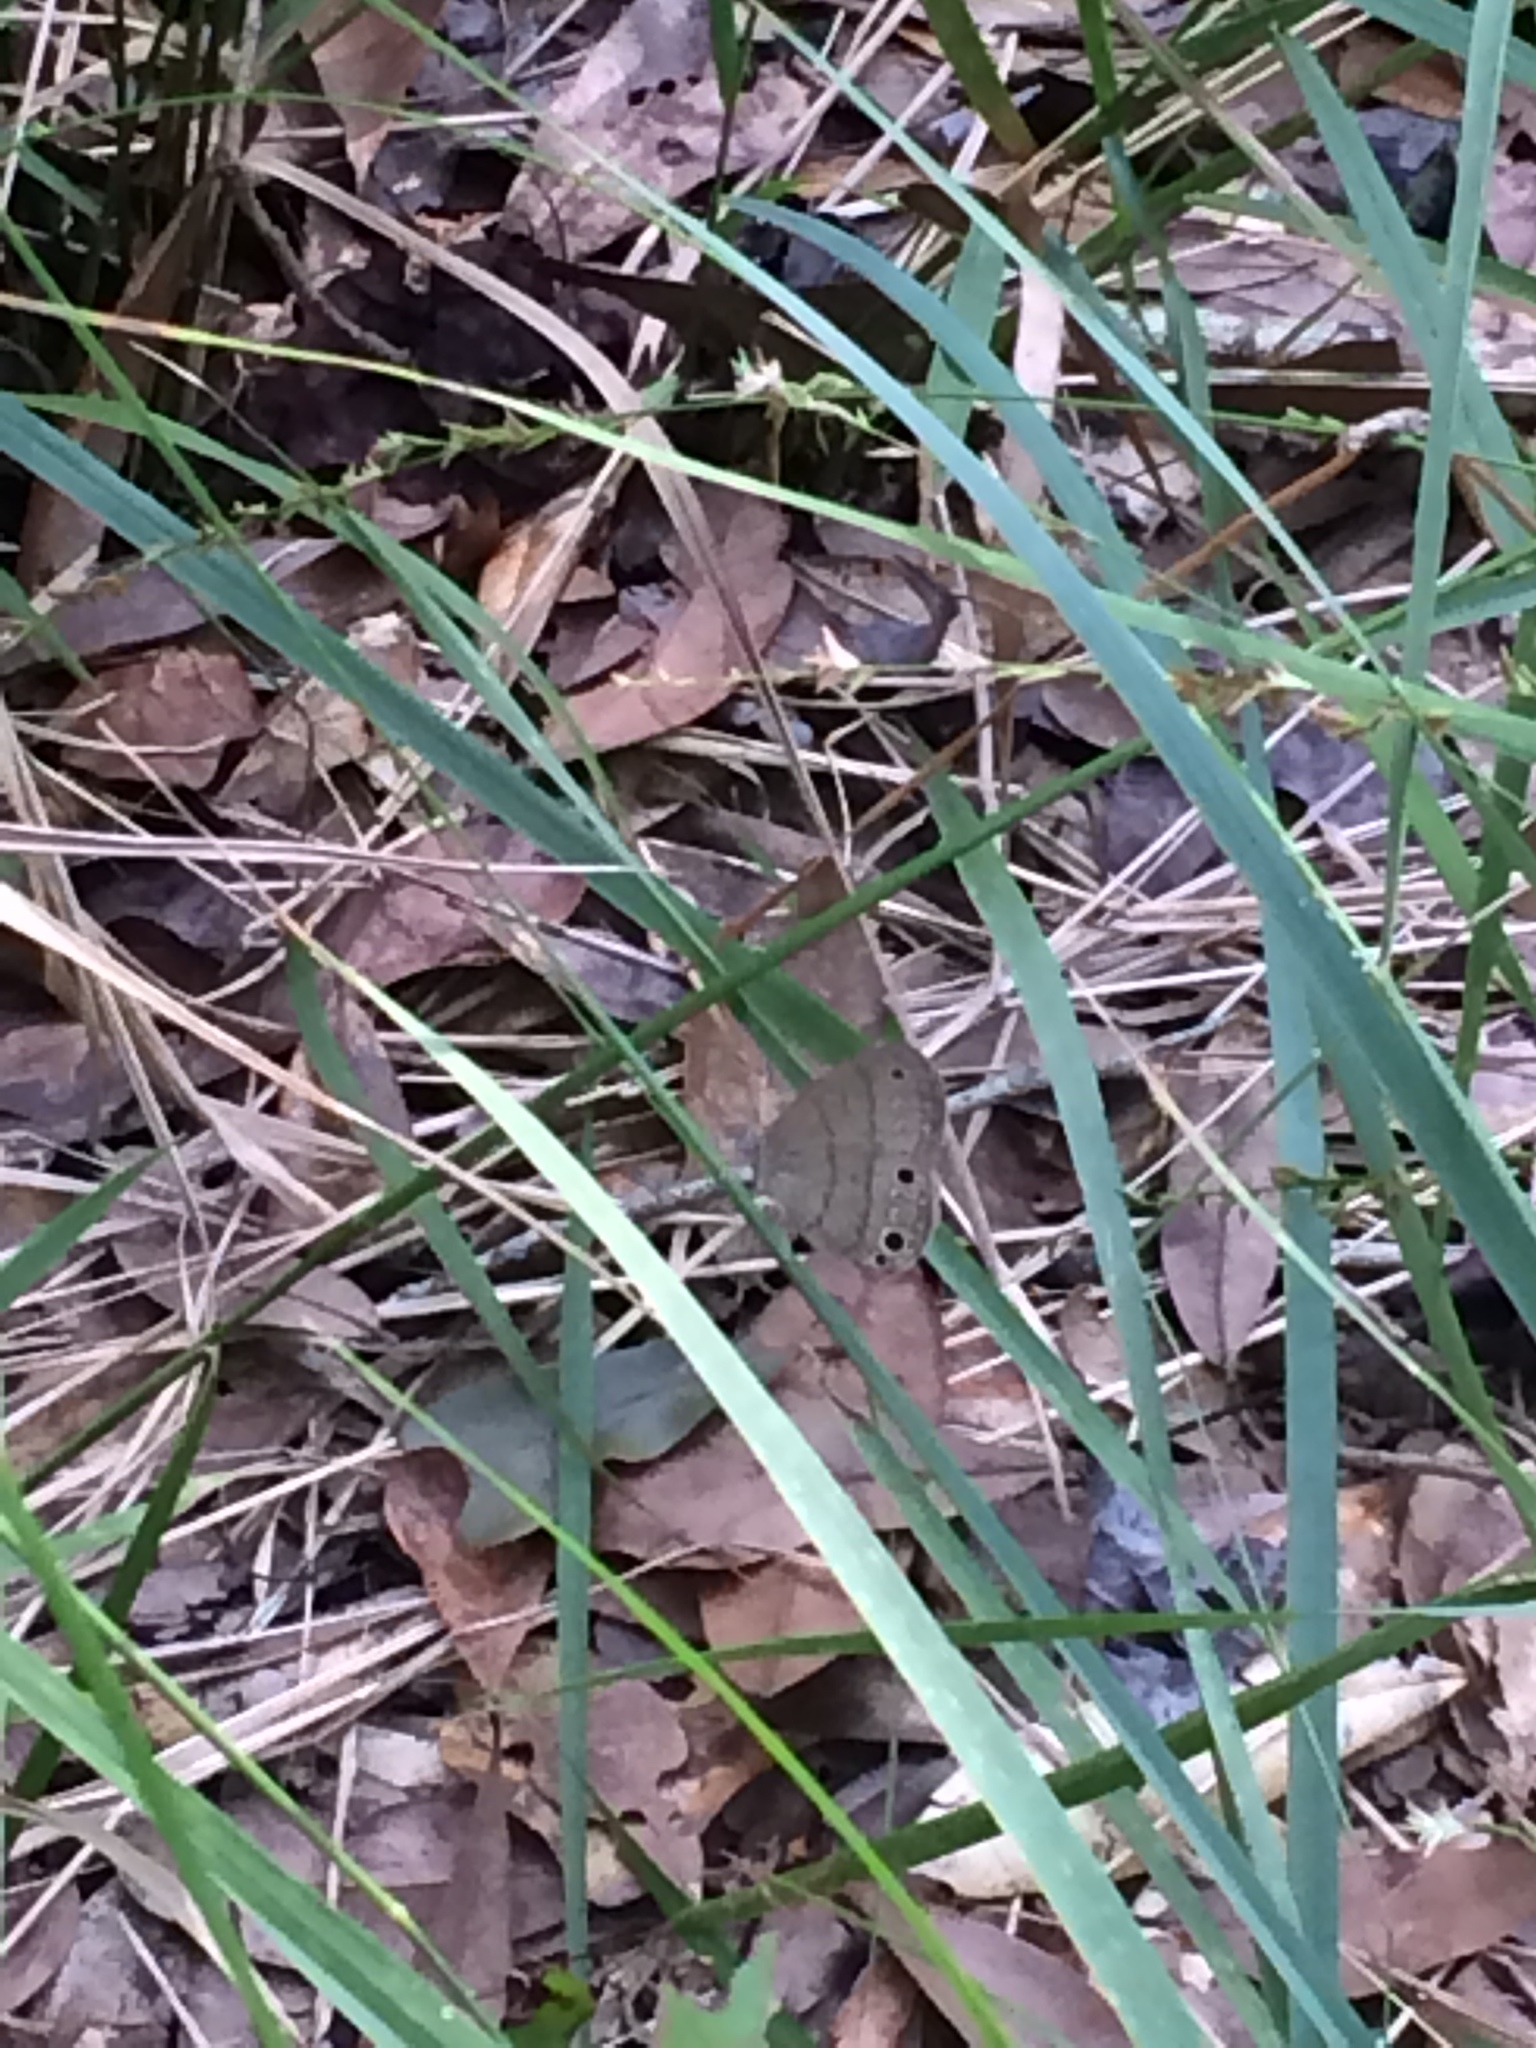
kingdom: Animalia
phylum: Arthropoda
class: Insecta
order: Lepidoptera
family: Nymphalidae
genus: Hermeuptychia
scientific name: Hermeuptychia intricata
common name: Intricate satyr
